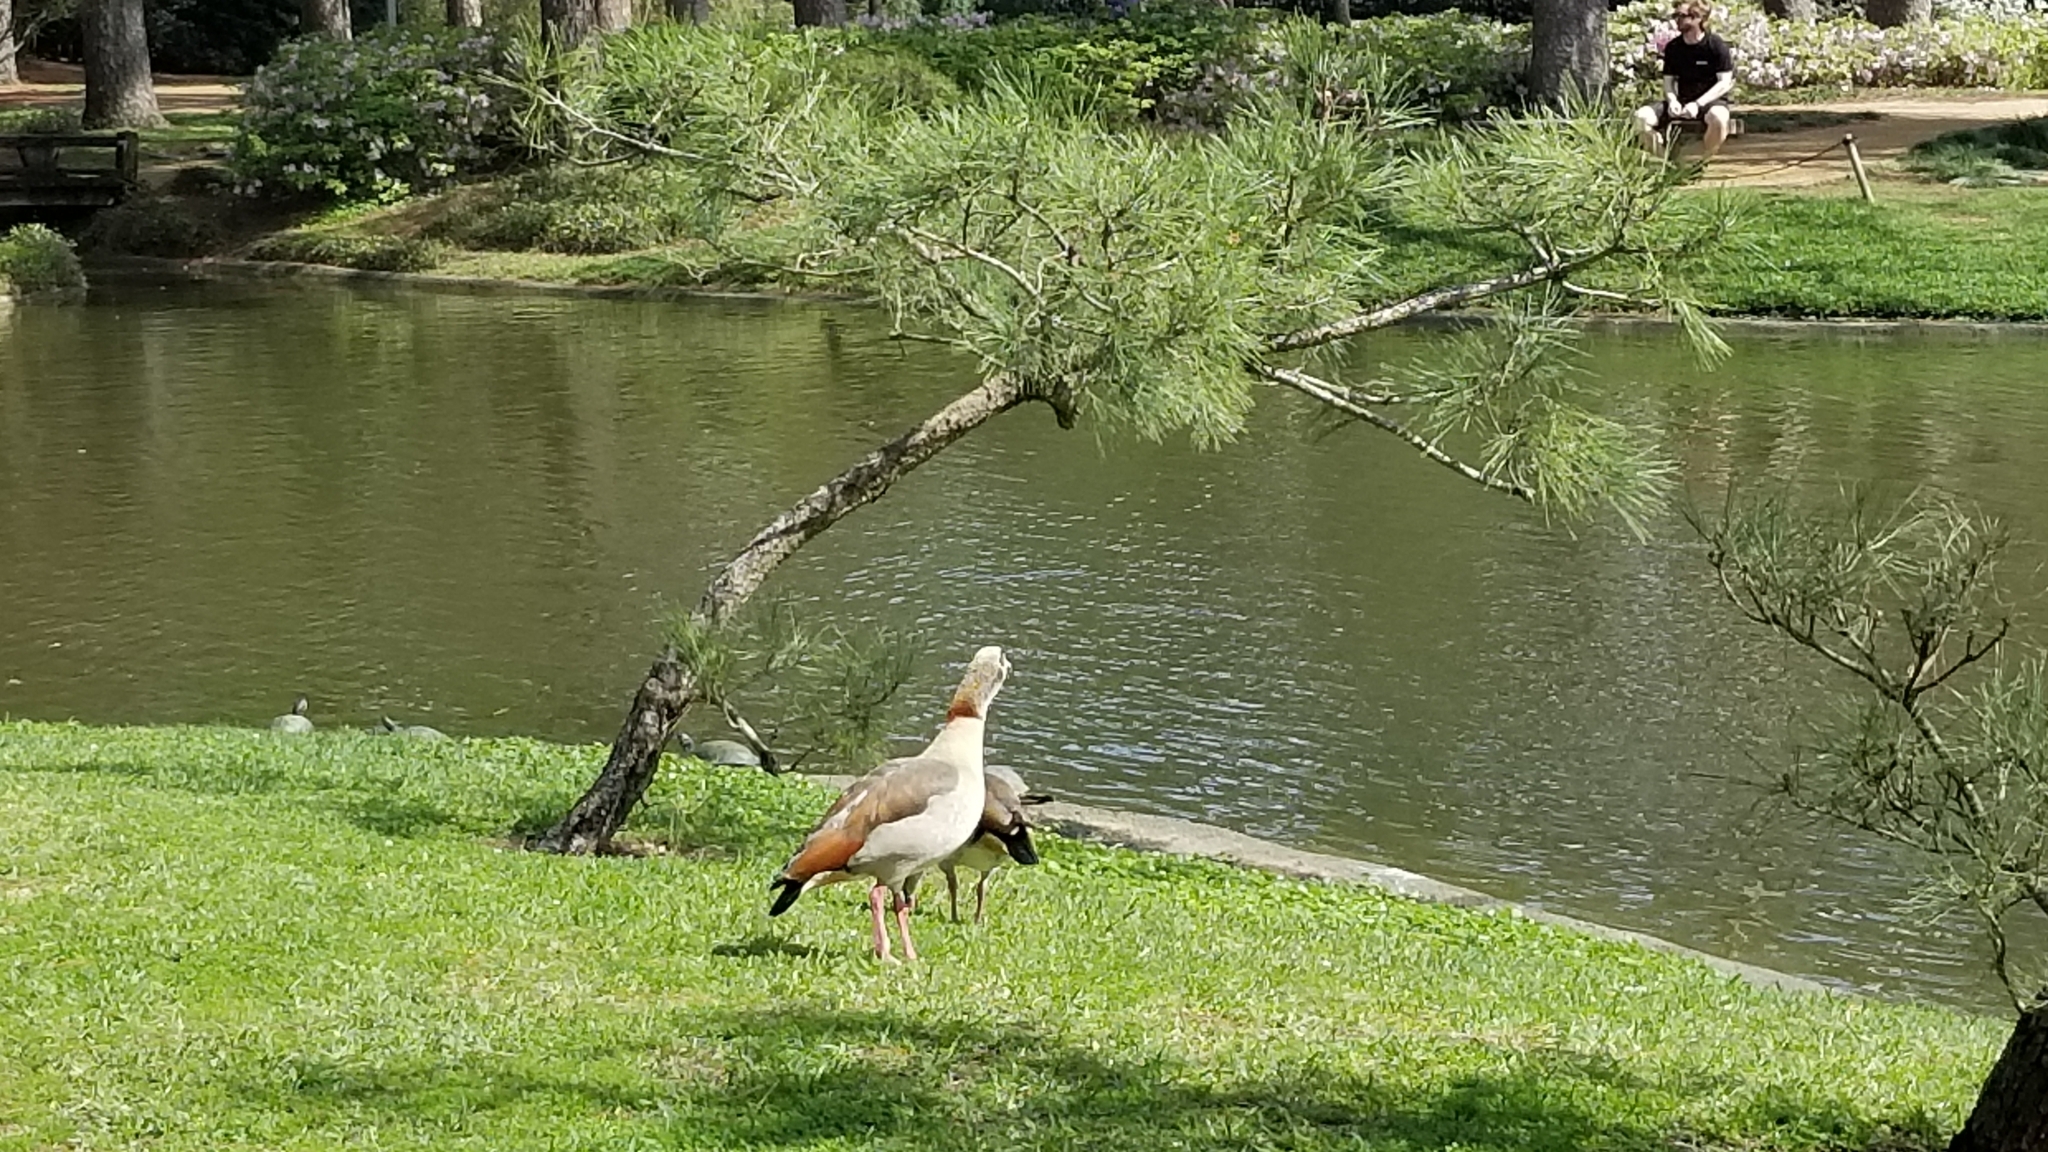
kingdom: Animalia
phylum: Chordata
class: Aves
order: Anseriformes
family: Anatidae
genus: Alopochen
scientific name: Alopochen aegyptiaca
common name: Egyptian goose
